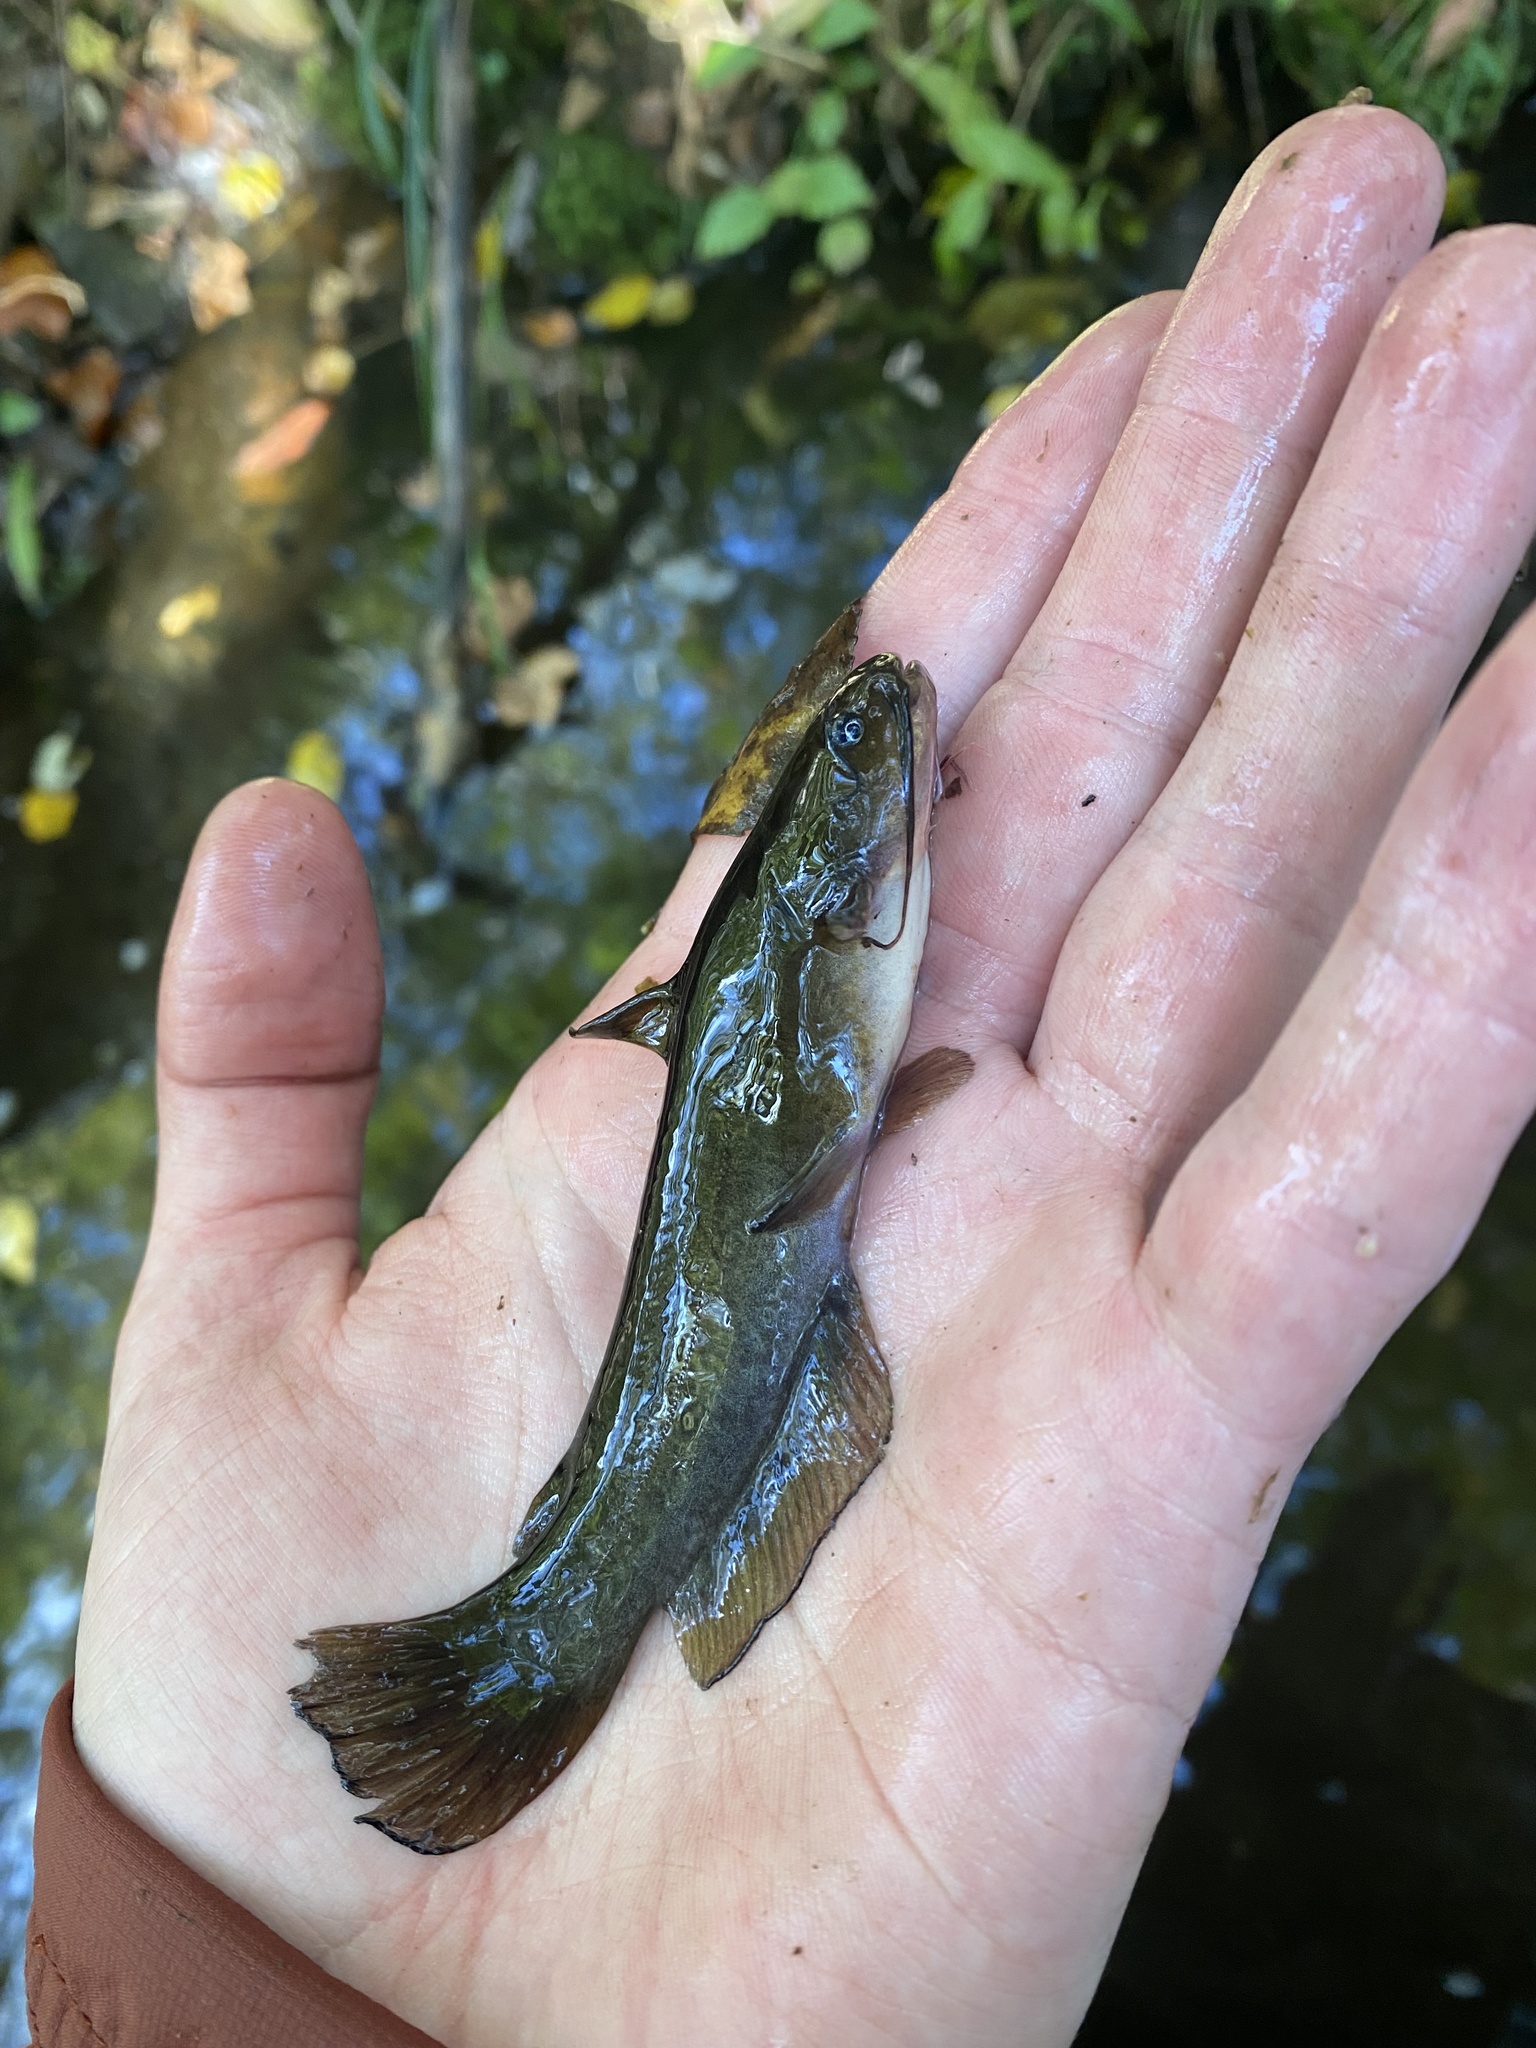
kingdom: Animalia
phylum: Chordata
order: Siluriformes
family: Ictaluridae
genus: Ameiurus
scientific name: Ameiurus natalis
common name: Yellow bullhead
